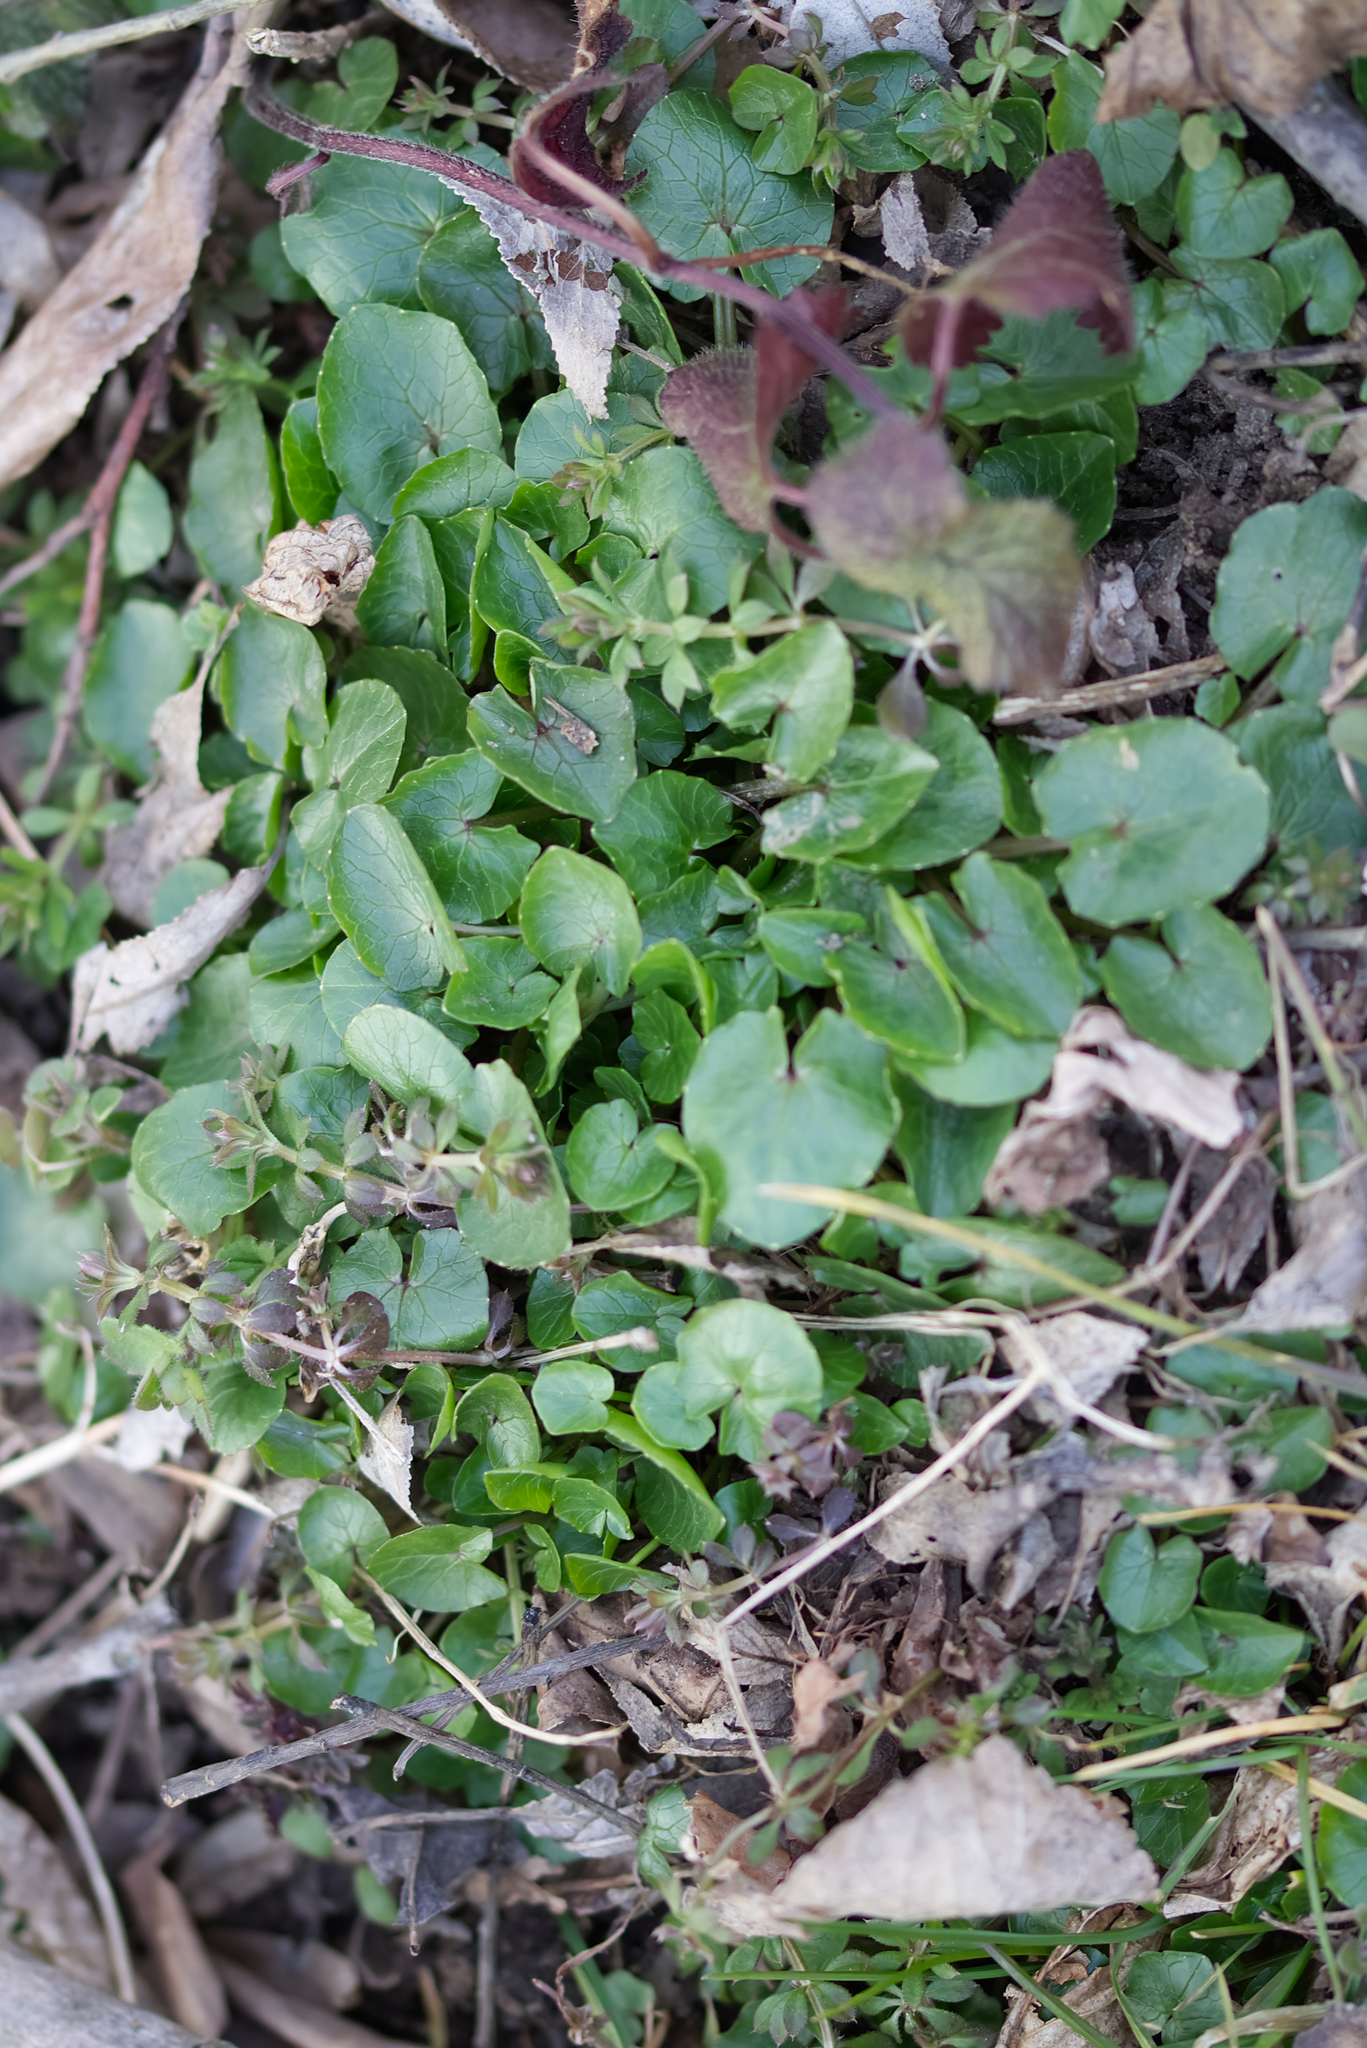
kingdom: Plantae
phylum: Tracheophyta
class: Magnoliopsida
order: Ranunculales
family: Ranunculaceae
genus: Ficaria
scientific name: Ficaria verna
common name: Lesser celandine
